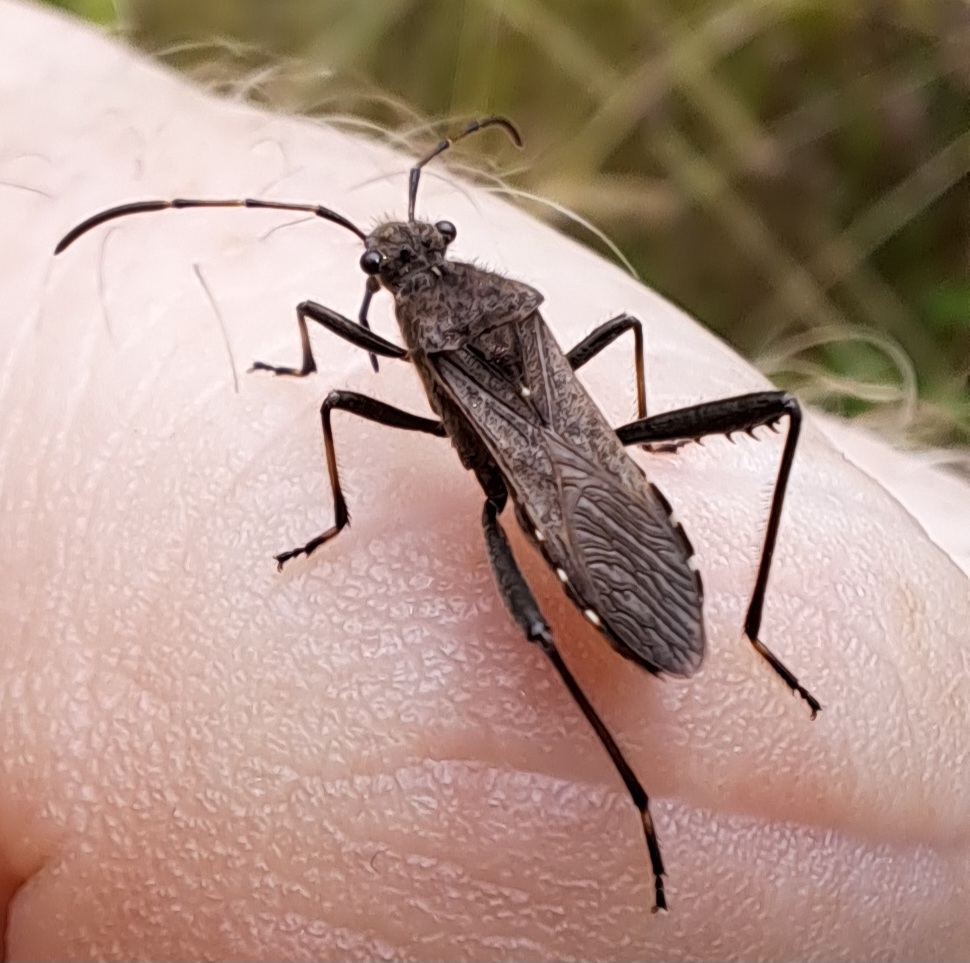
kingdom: Animalia
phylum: Arthropoda
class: Insecta
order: Hemiptera
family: Alydidae
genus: Alydus
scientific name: Alydus calcaratus
